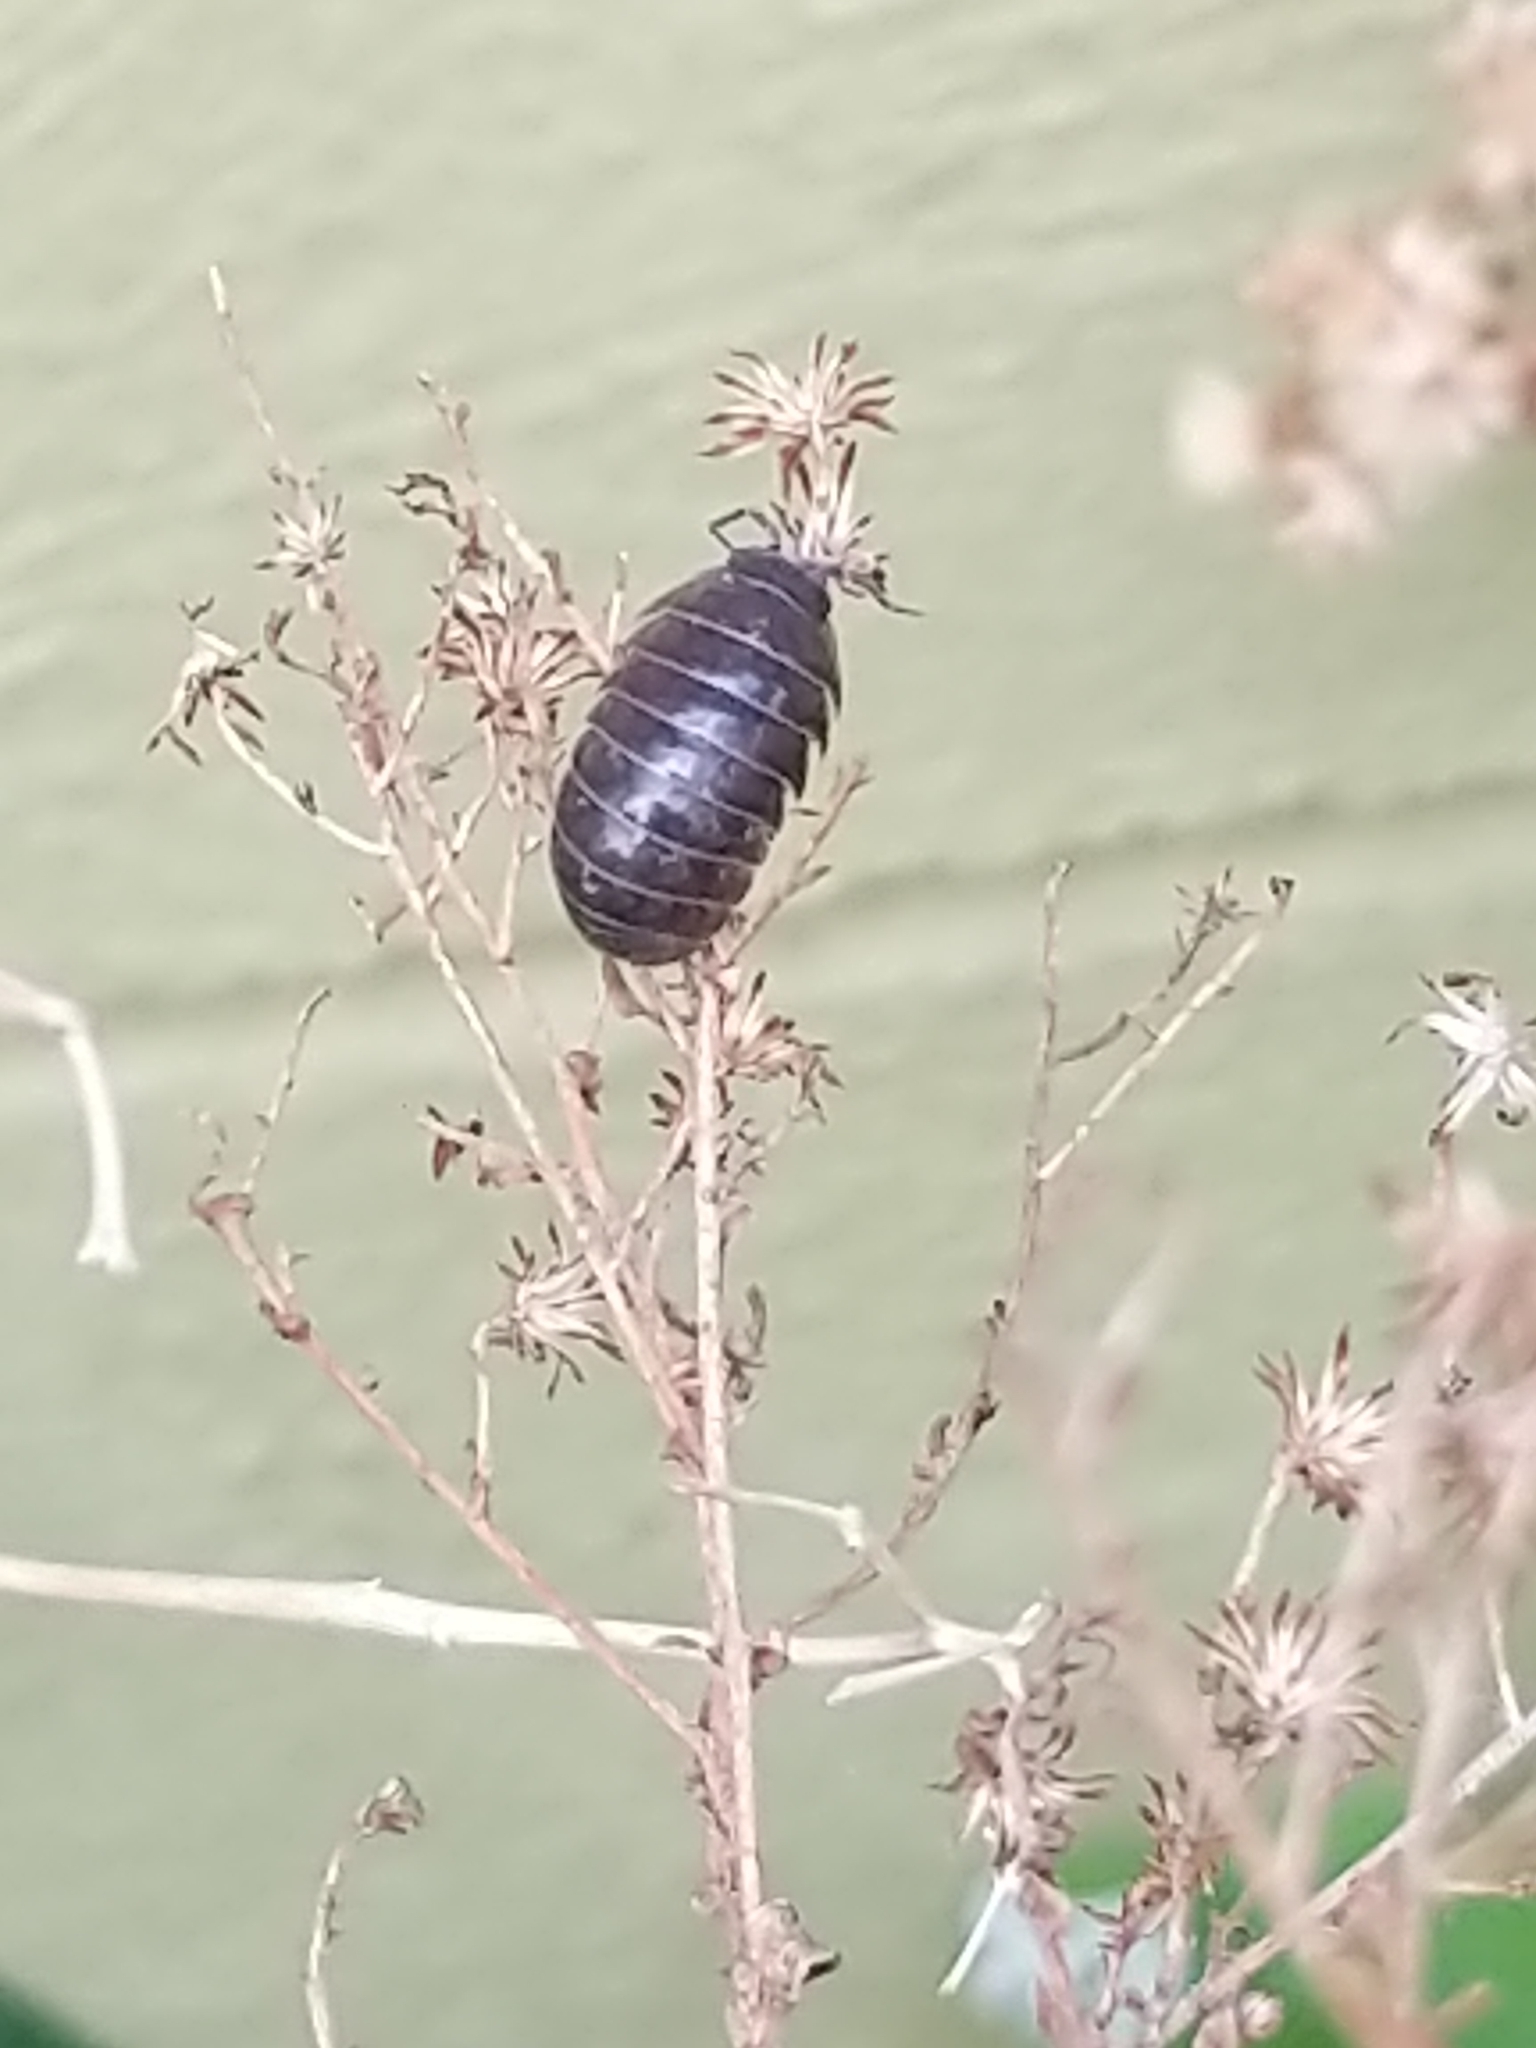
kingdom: Animalia
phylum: Arthropoda
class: Malacostraca
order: Isopoda
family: Armadillidiidae
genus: Armadillidium
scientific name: Armadillidium vulgare
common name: Common pill woodlouse
